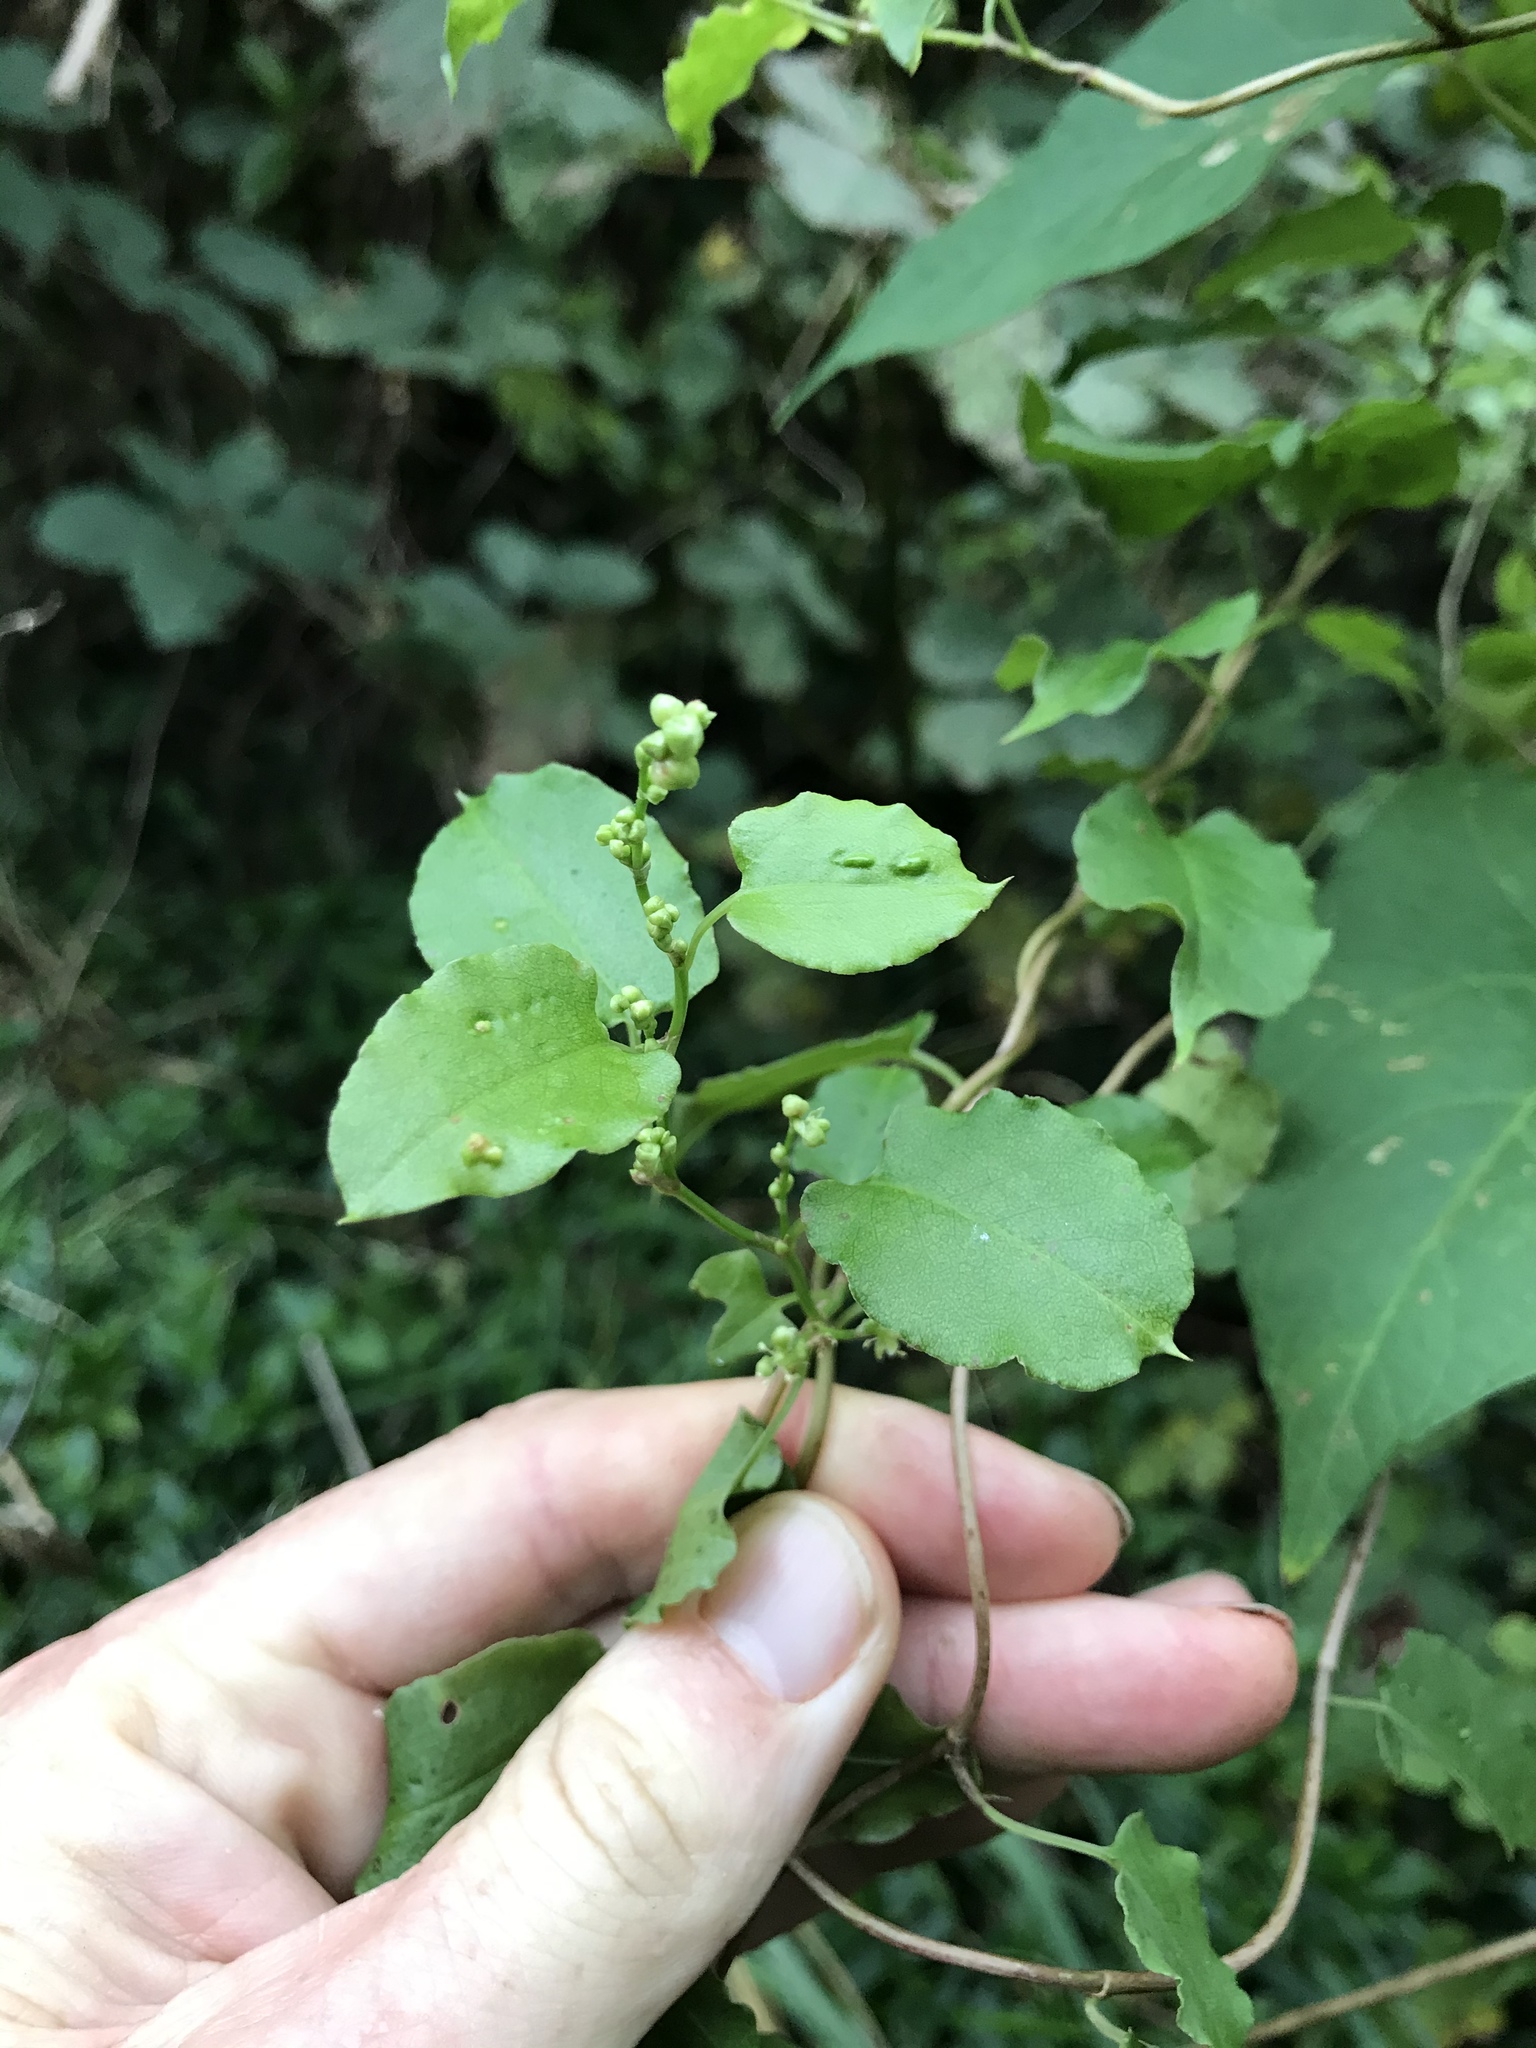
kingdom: Plantae
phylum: Tracheophyta
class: Magnoliopsida
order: Caryophyllales
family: Polygonaceae
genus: Muehlenbeckia
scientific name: Muehlenbeckia australis
